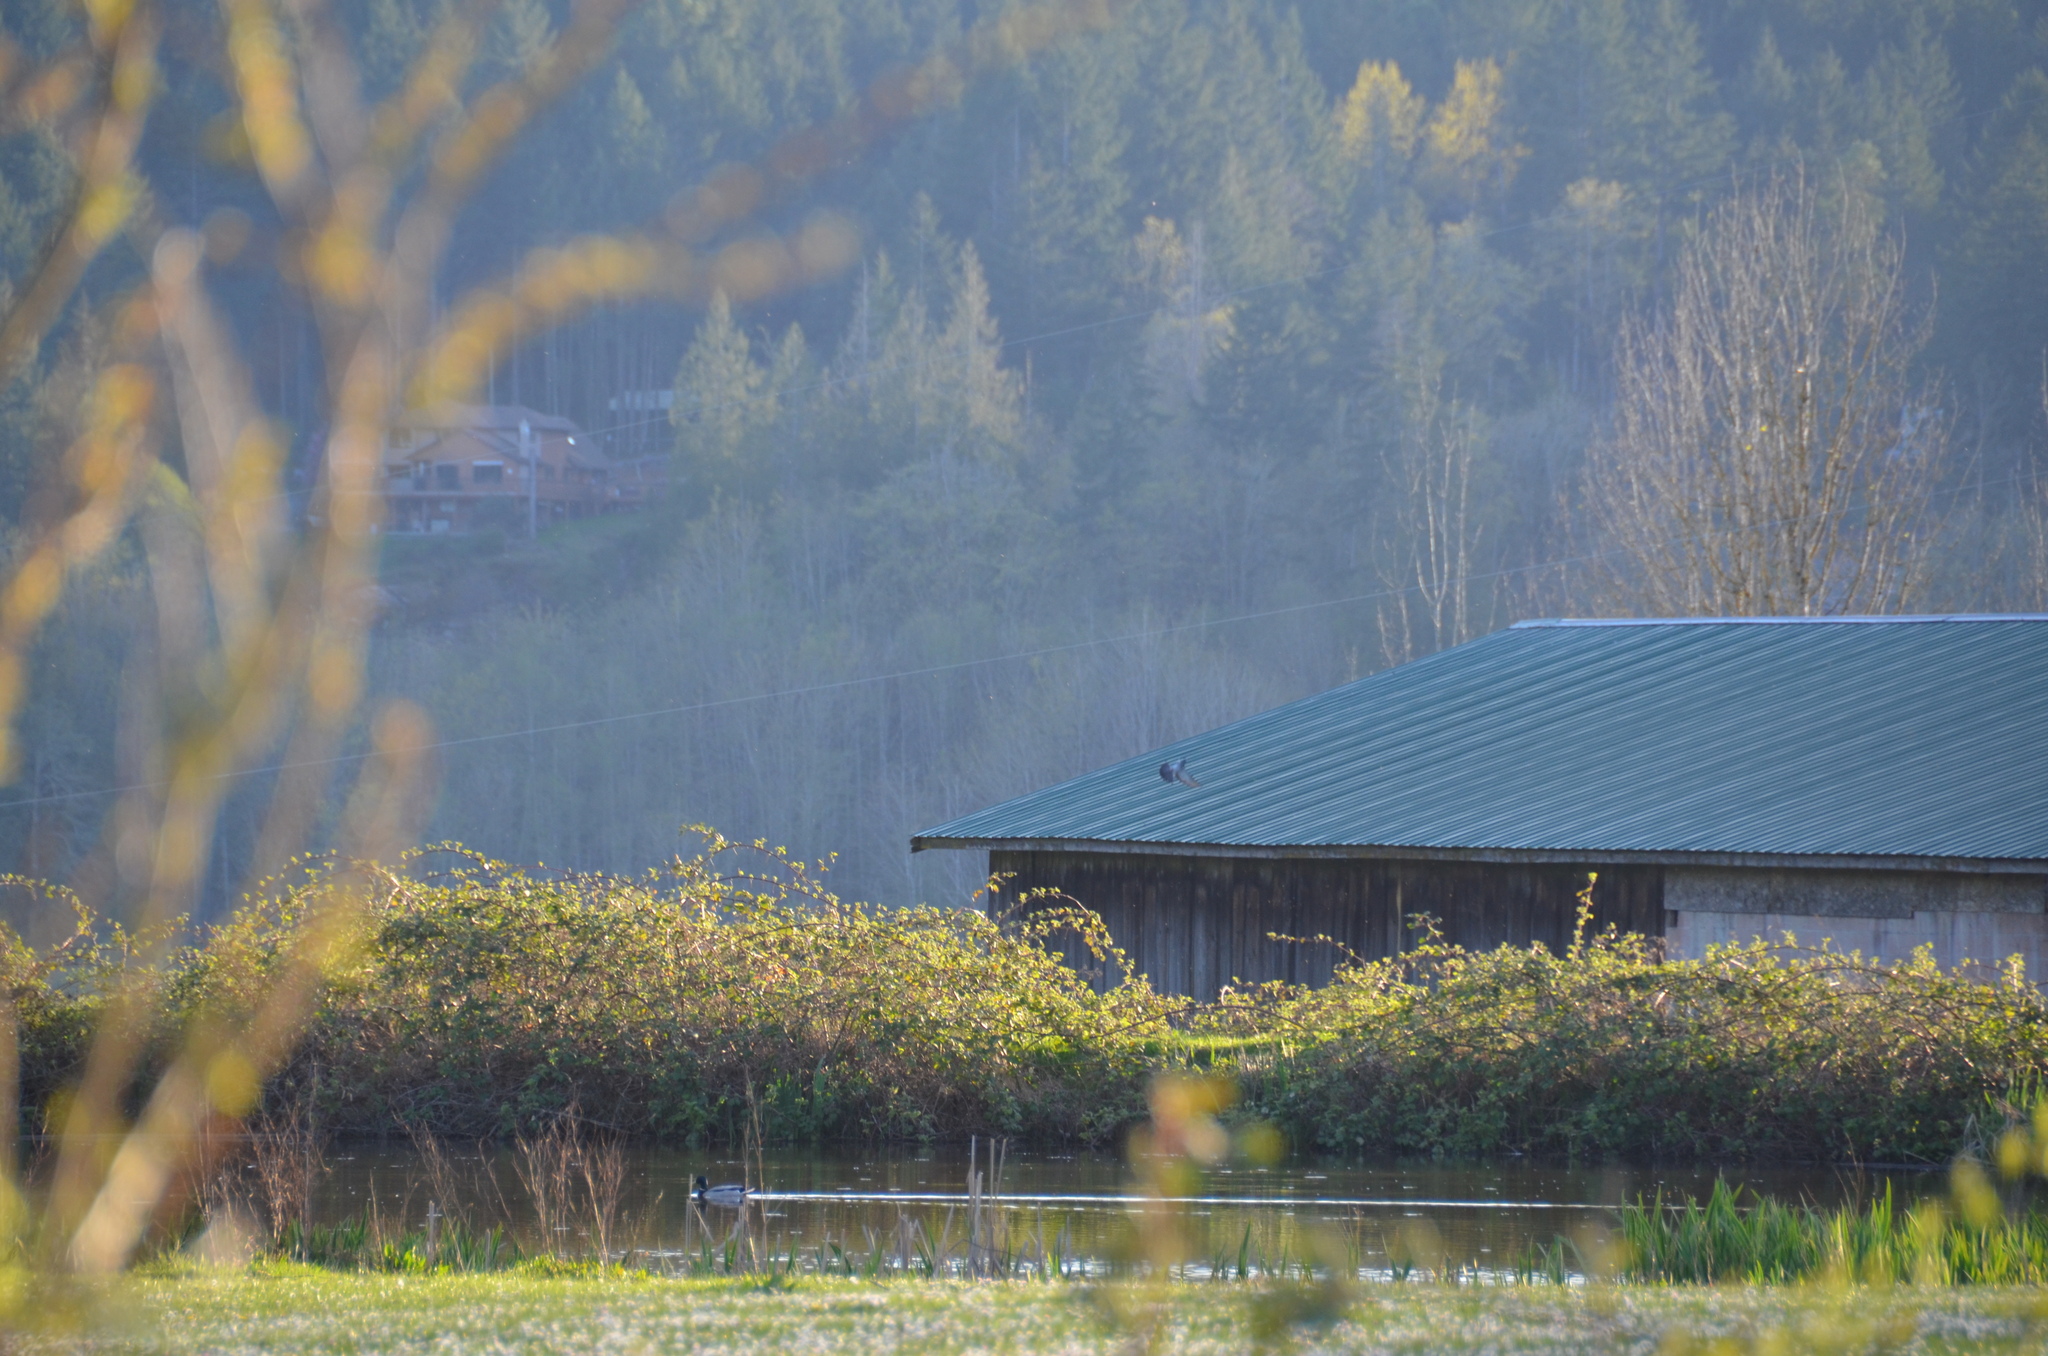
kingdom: Animalia
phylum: Chordata
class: Aves
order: Columbiformes
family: Columbidae
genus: Columba
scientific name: Columba livia
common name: Rock pigeon
